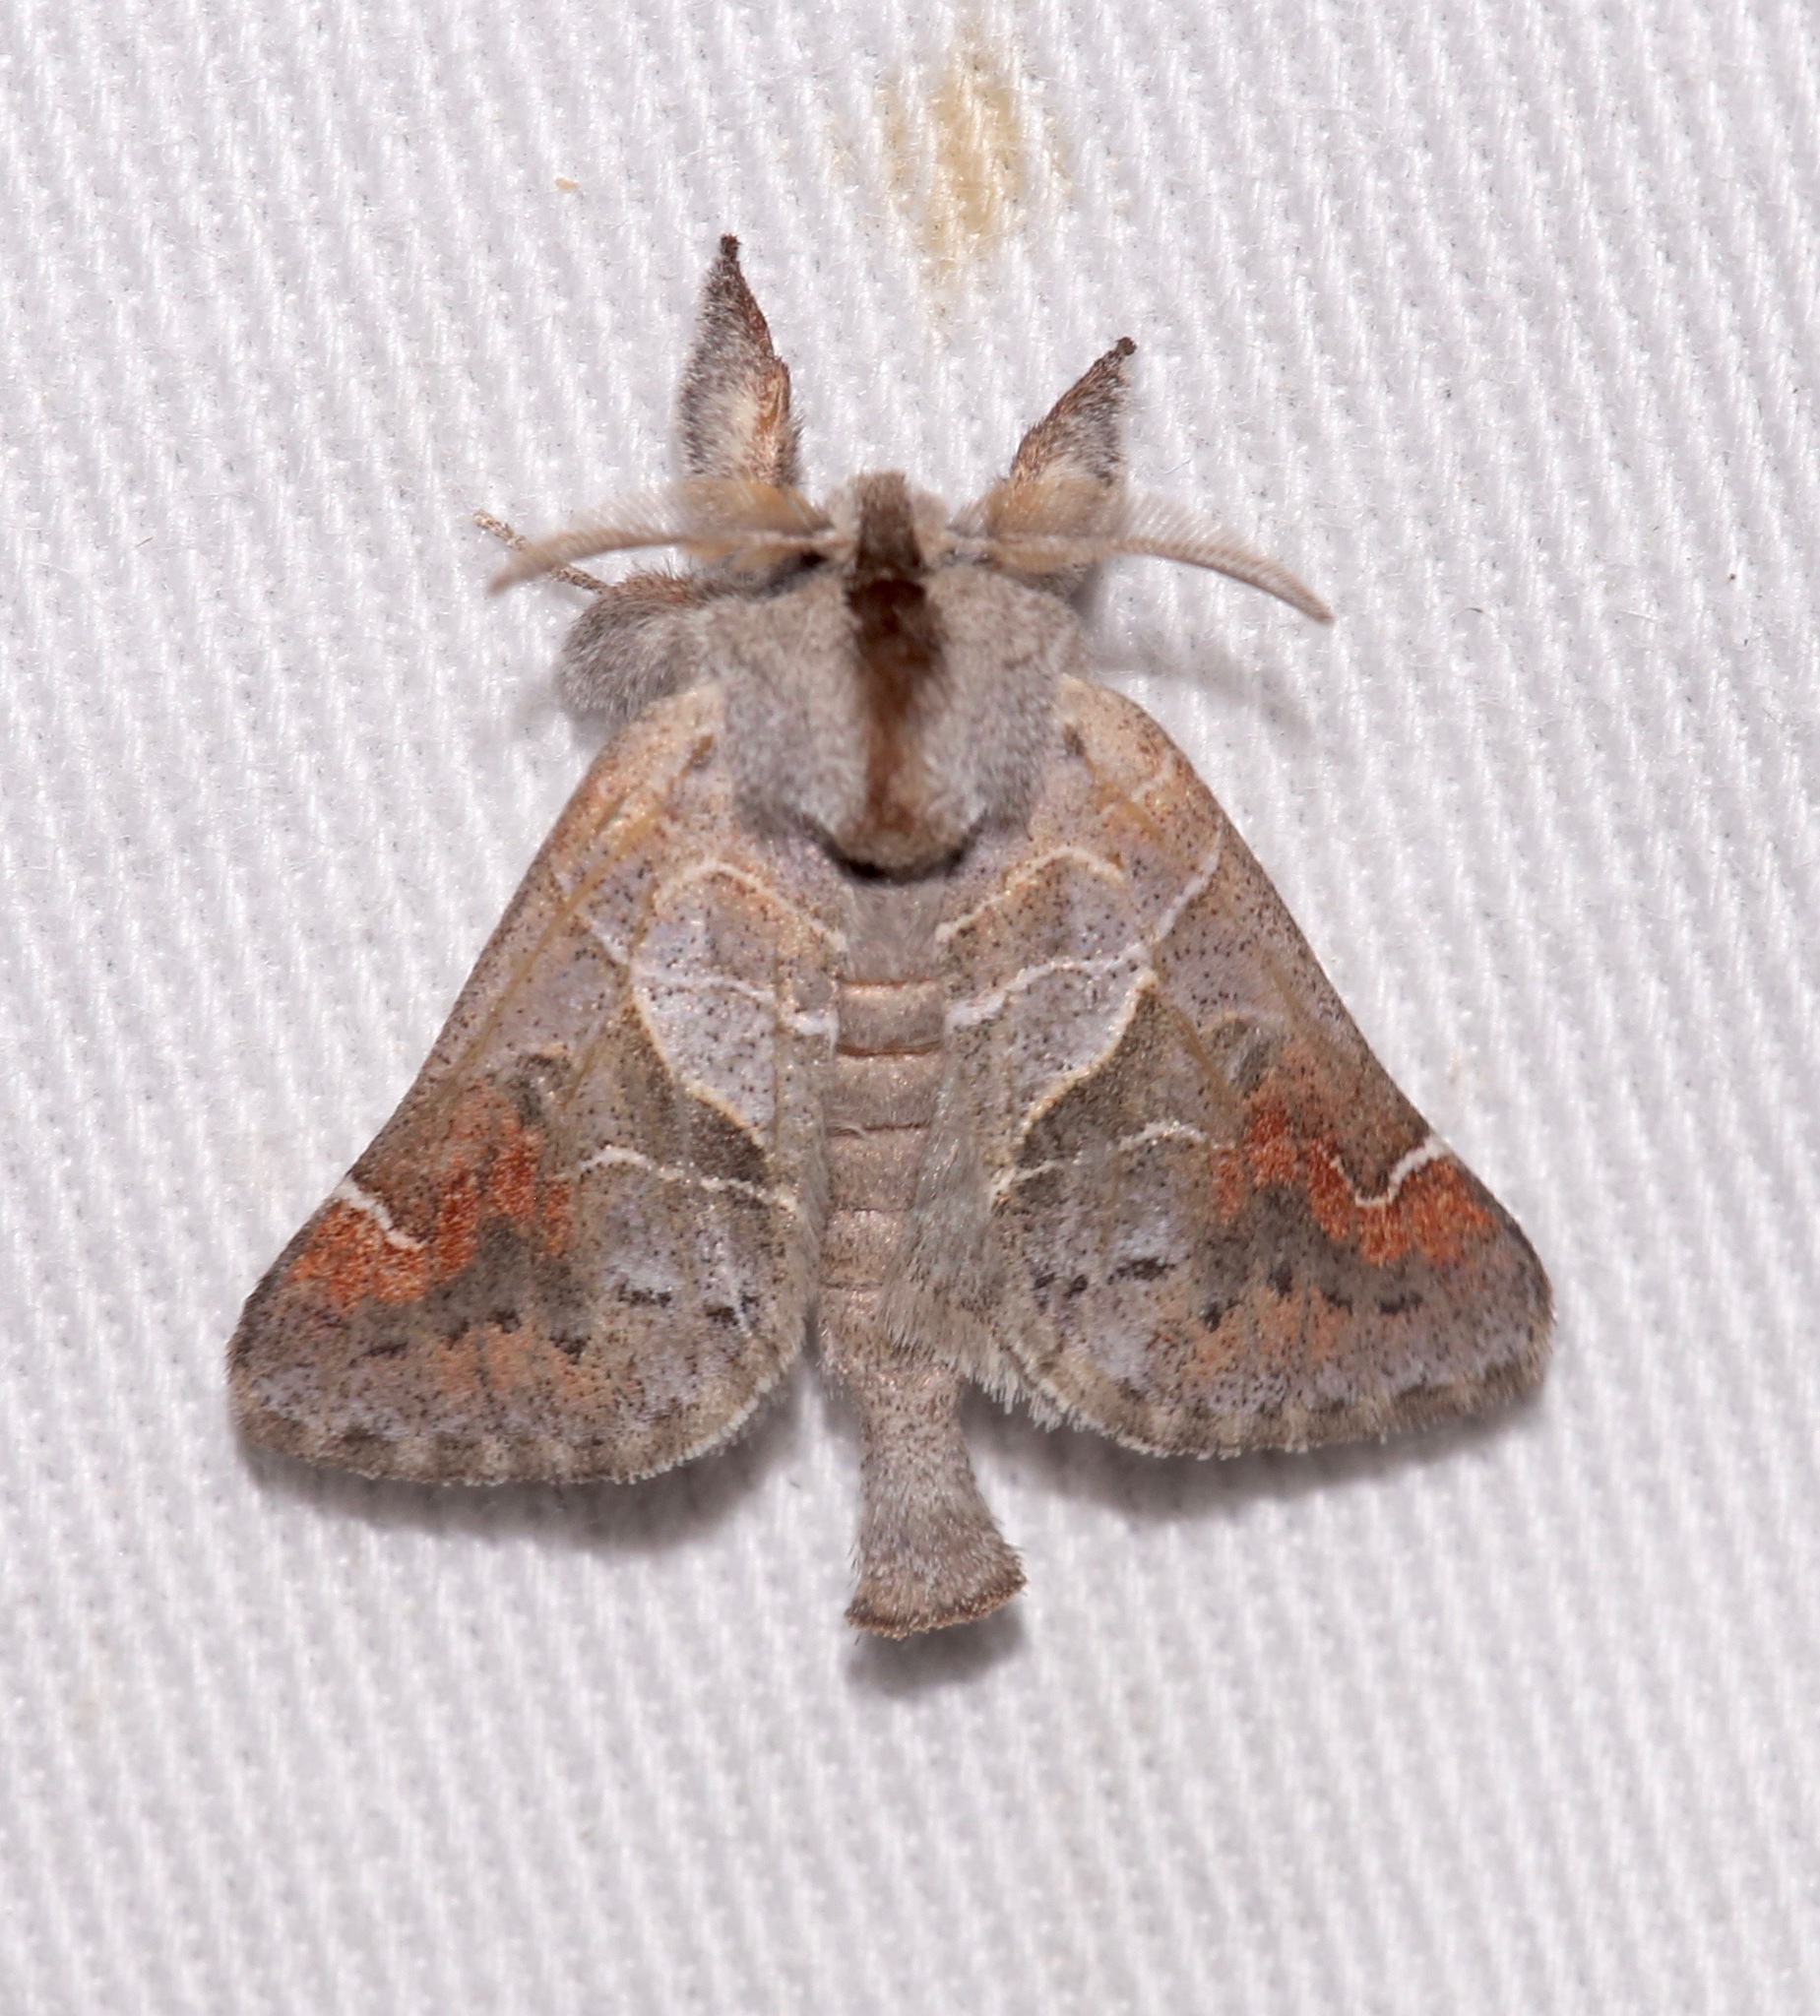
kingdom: Animalia
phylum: Arthropoda
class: Insecta
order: Lepidoptera
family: Notodontidae
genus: Clostera
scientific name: Clostera apicalis
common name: Apical prominent
